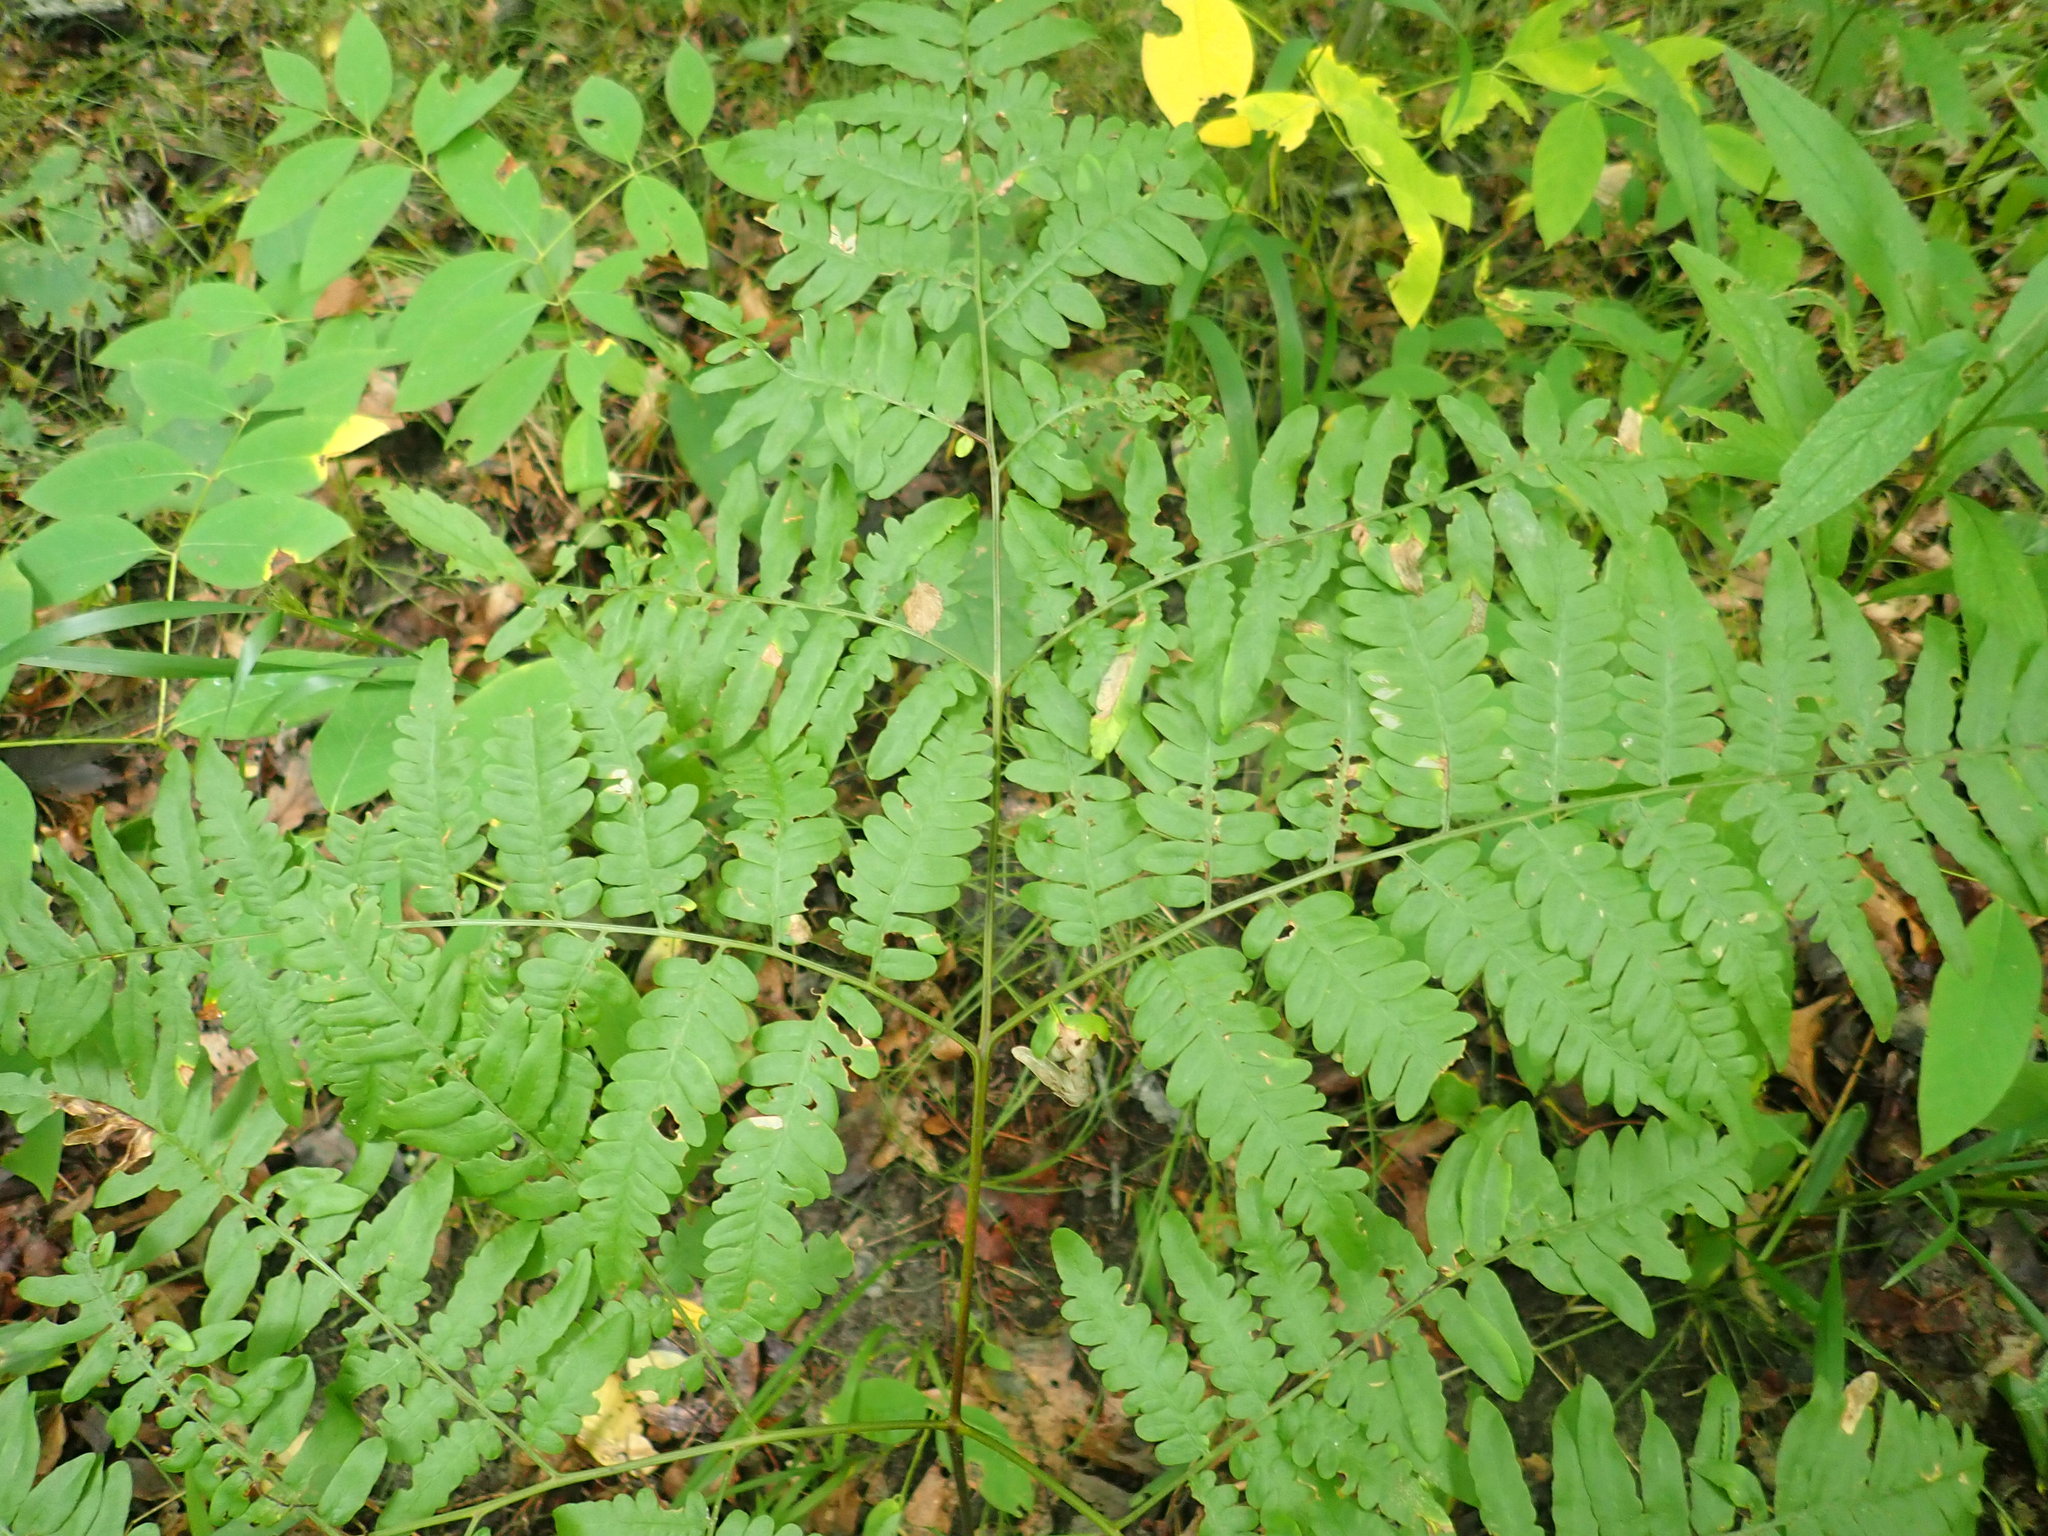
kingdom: Plantae
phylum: Tracheophyta
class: Polypodiopsida
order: Polypodiales
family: Dennstaedtiaceae
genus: Pteridium
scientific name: Pteridium aquilinum
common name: Bracken
